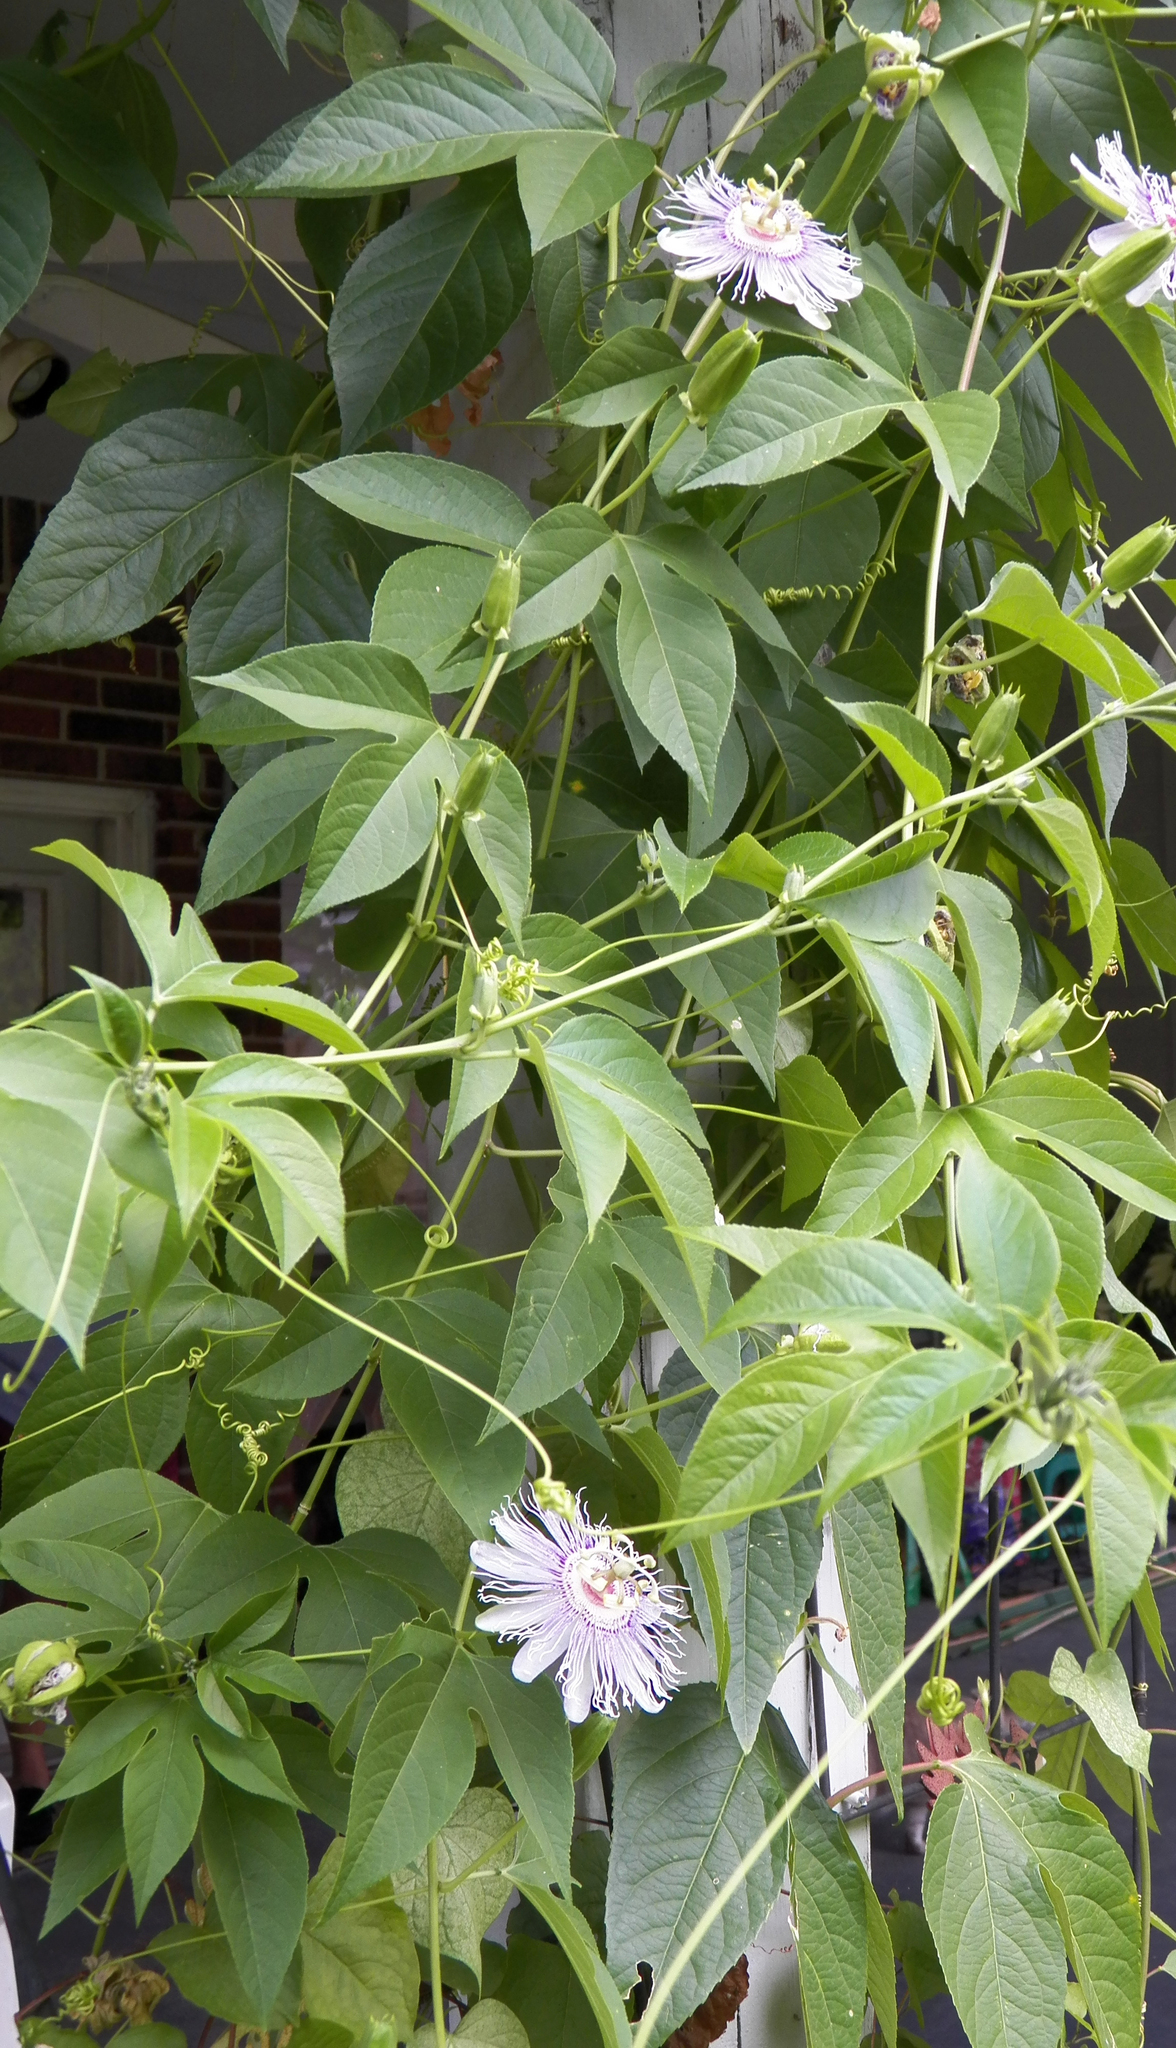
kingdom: Plantae
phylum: Tracheophyta
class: Magnoliopsida
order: Malpighiales
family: Passifloraceae
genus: Passiflora
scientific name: Passiflora incarnata
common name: Apricot-vine
